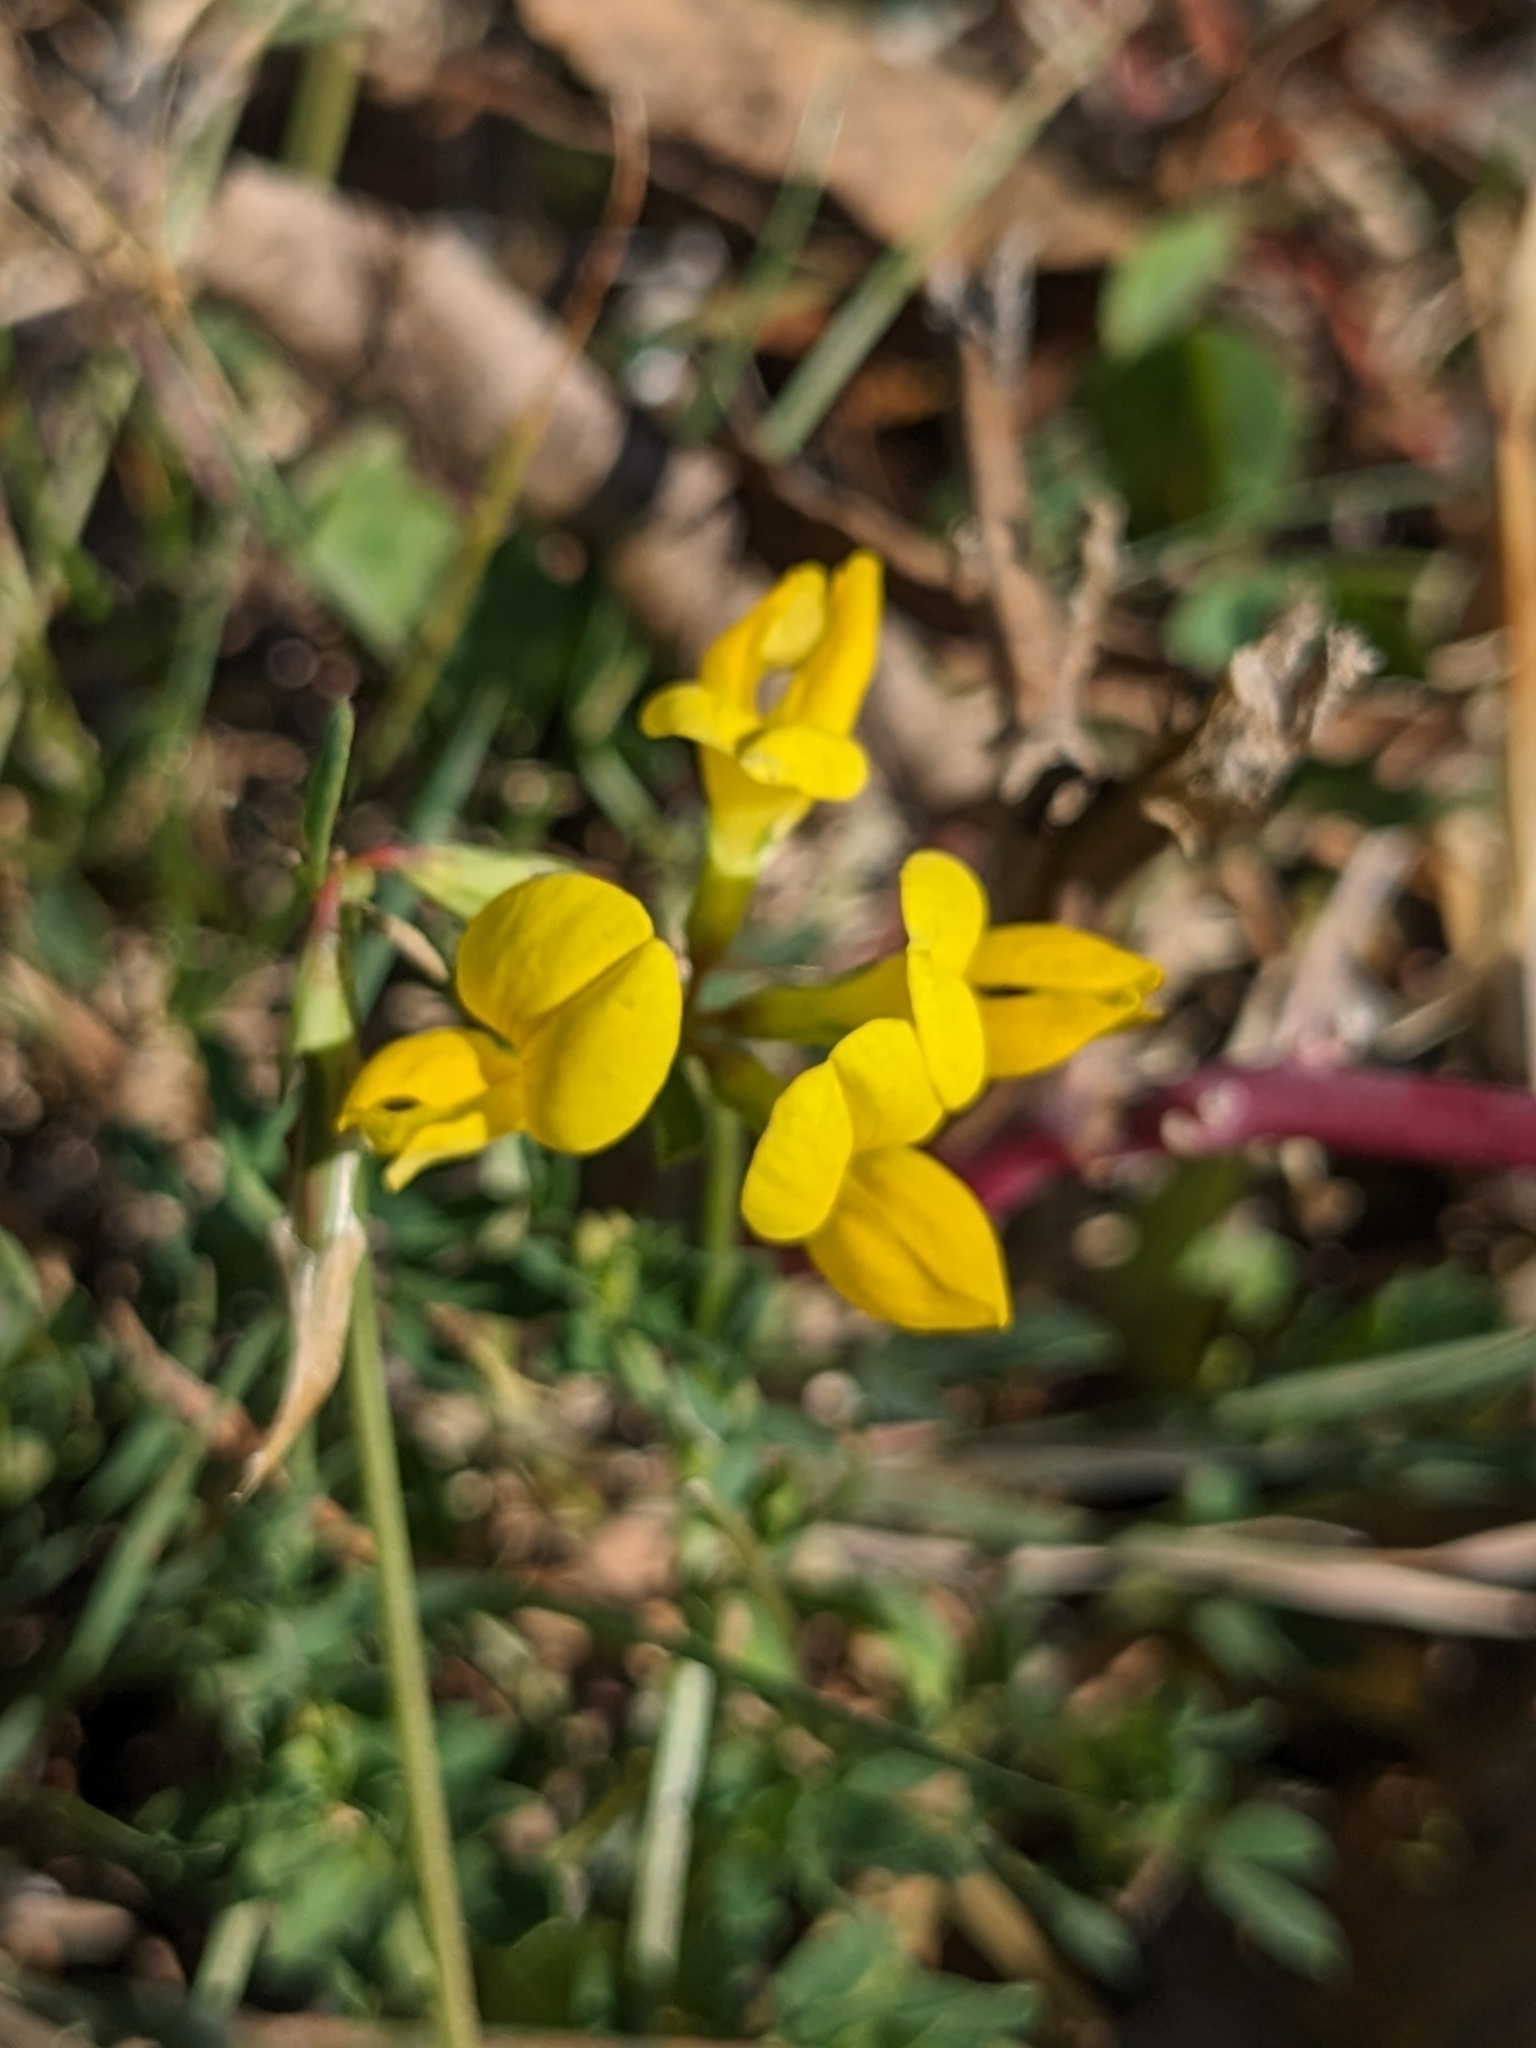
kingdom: Plantae
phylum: Tracheophyta
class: Magnoliopsida
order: Fabales
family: Fabaceae
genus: Lotus
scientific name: Lotus corniculatus
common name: Common bird's-foot-trefoil
